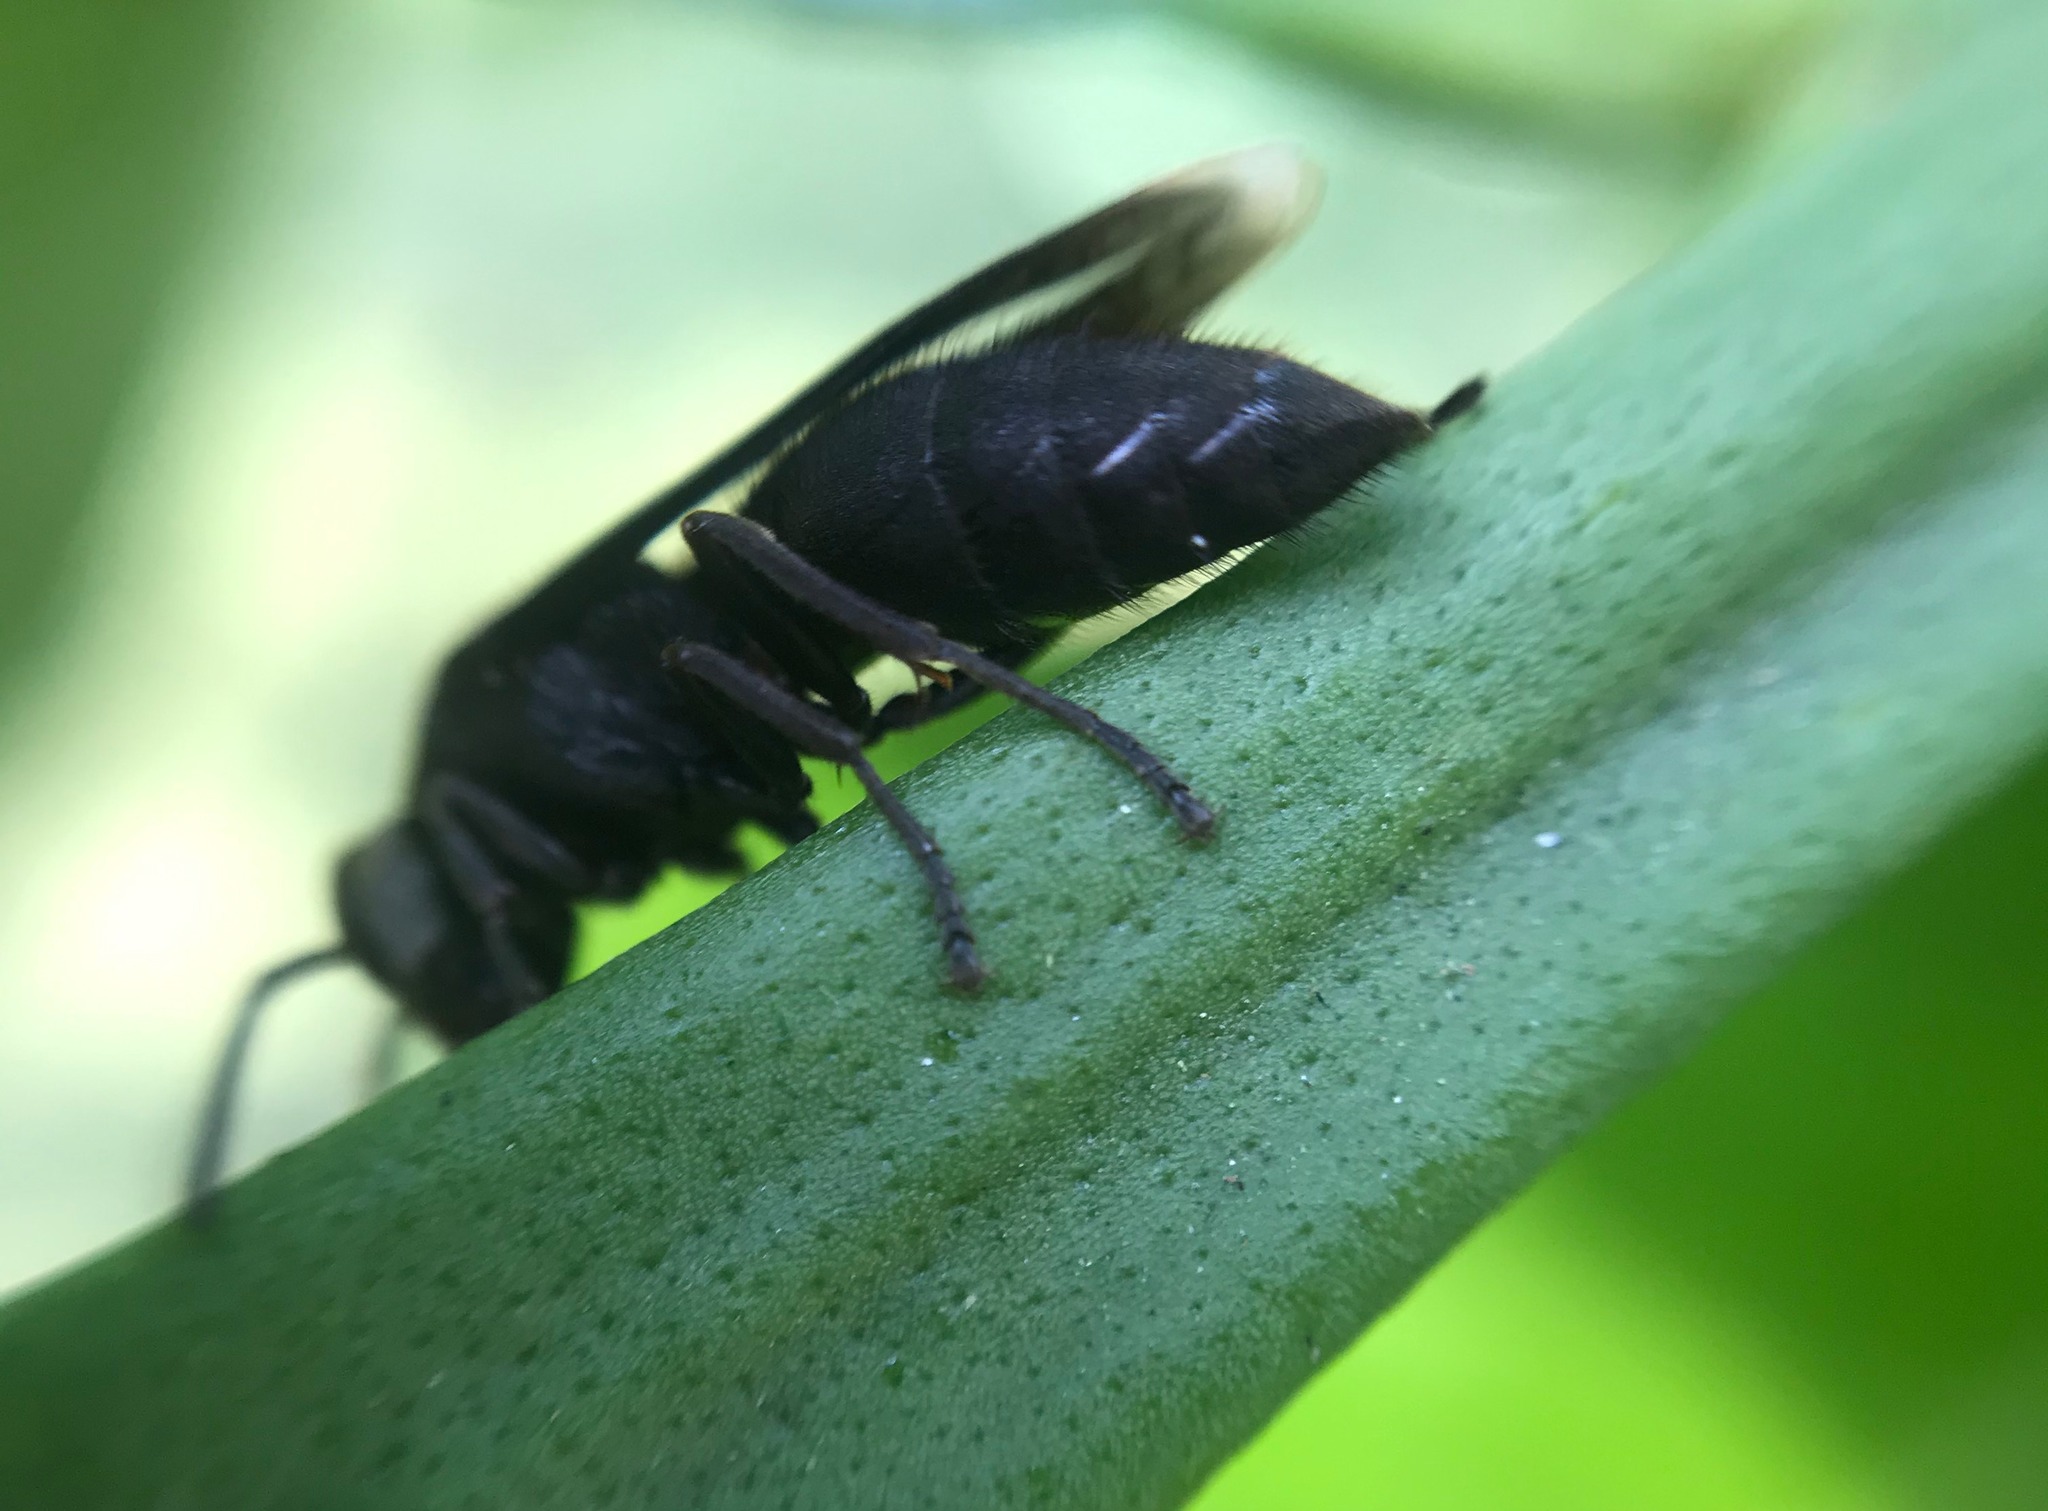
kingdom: Animalia
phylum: Arthropoda
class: Insecta
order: Hymenoptera
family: Vespidae
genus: Parachartergus
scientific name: Parachartergus fraternus
